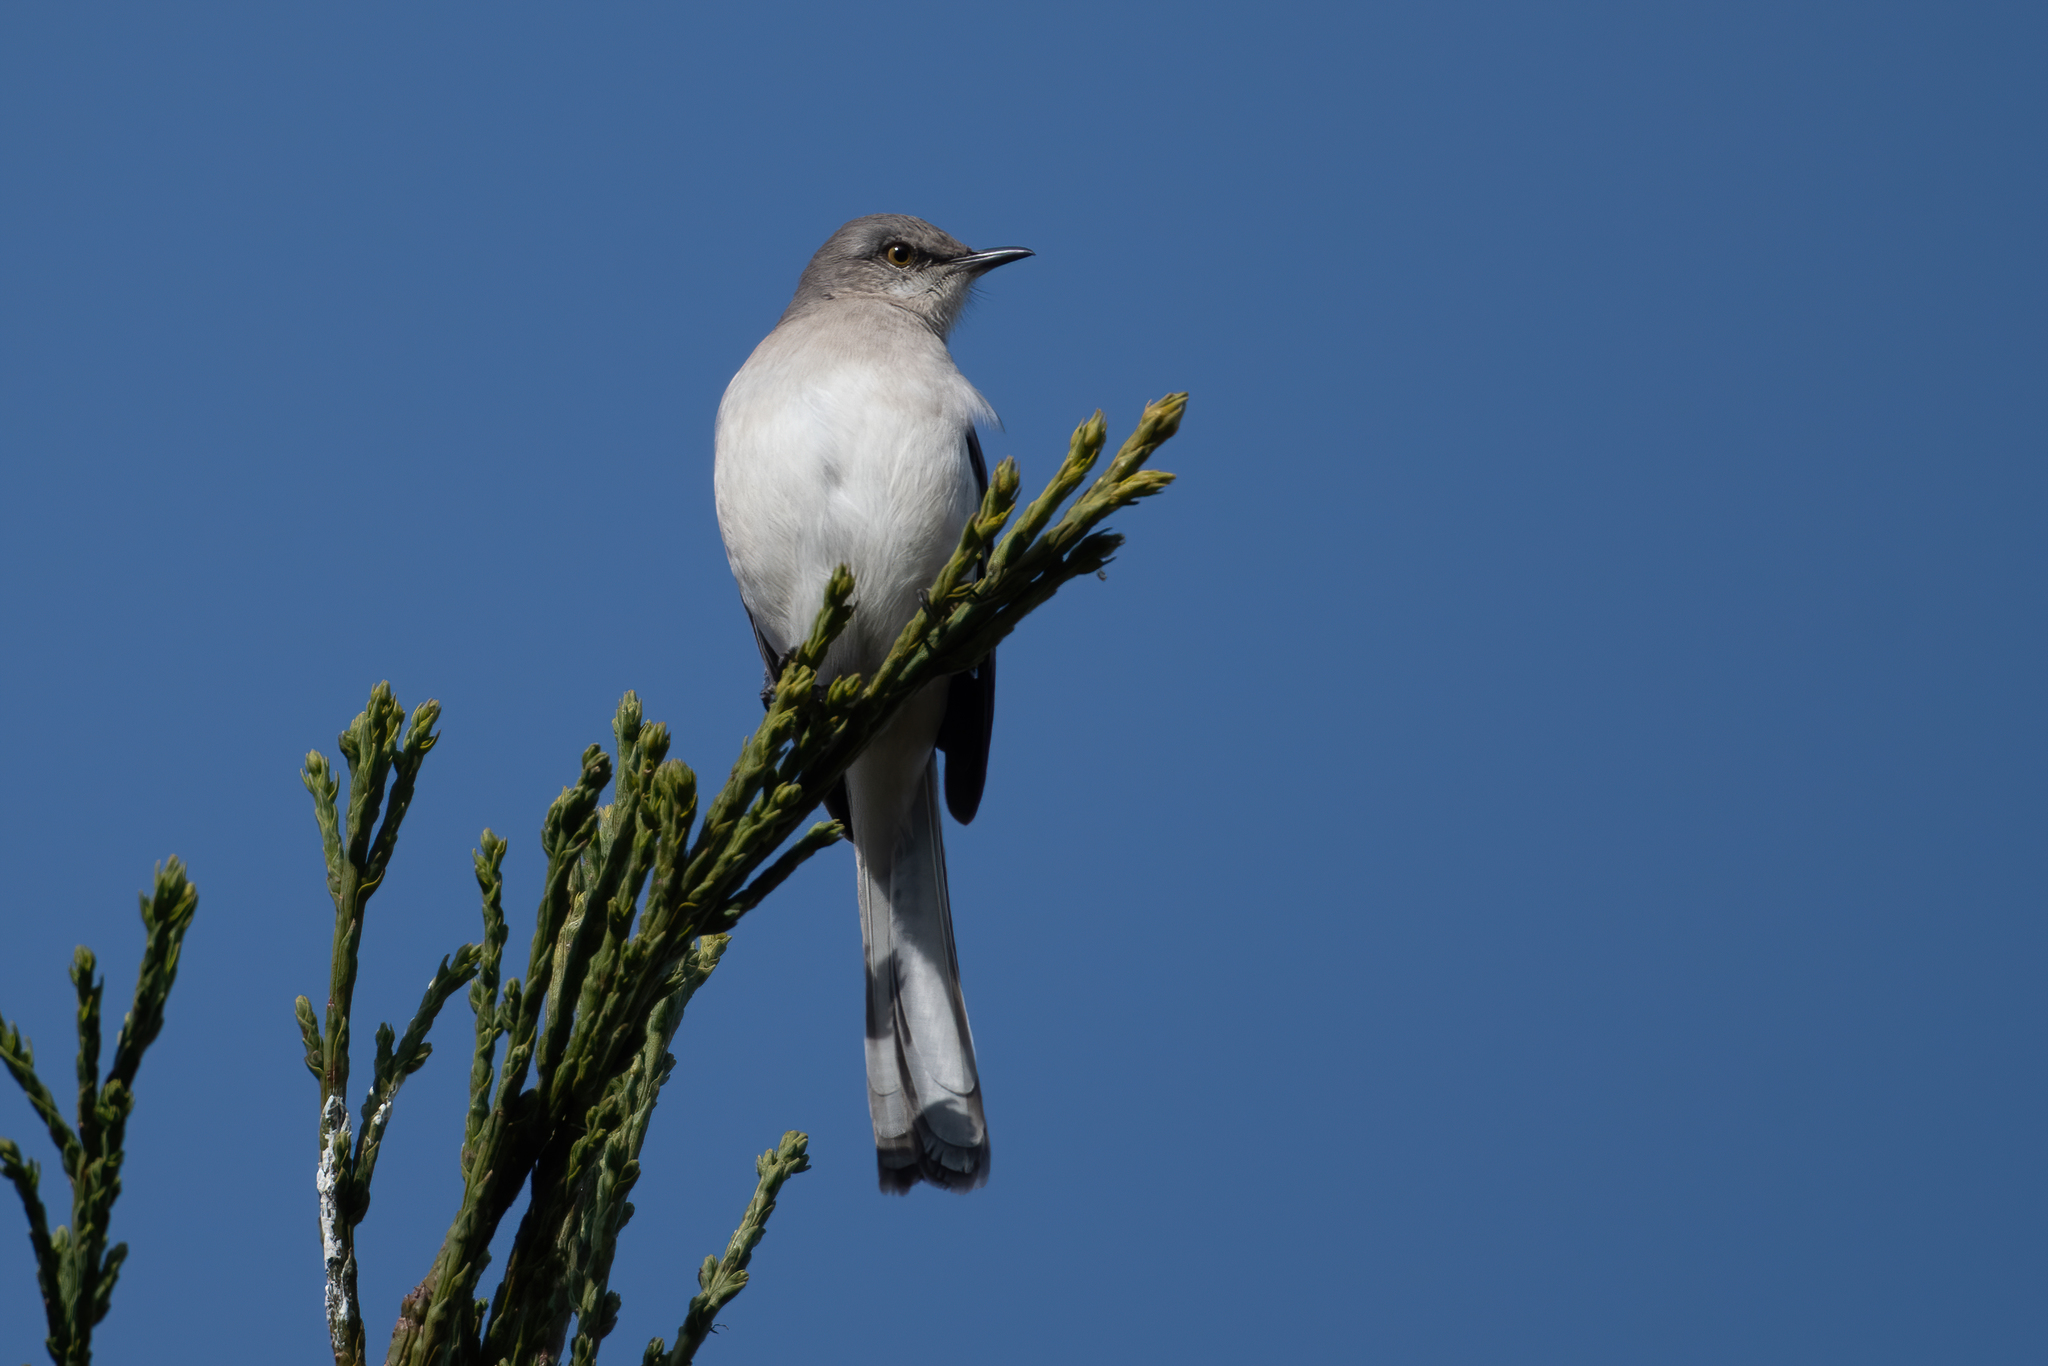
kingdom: Animalia
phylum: Chordata
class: Aves
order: Passeriformes
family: Mimidae
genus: Mimus
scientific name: Mimus polyglottos
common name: Northern mockingbird
